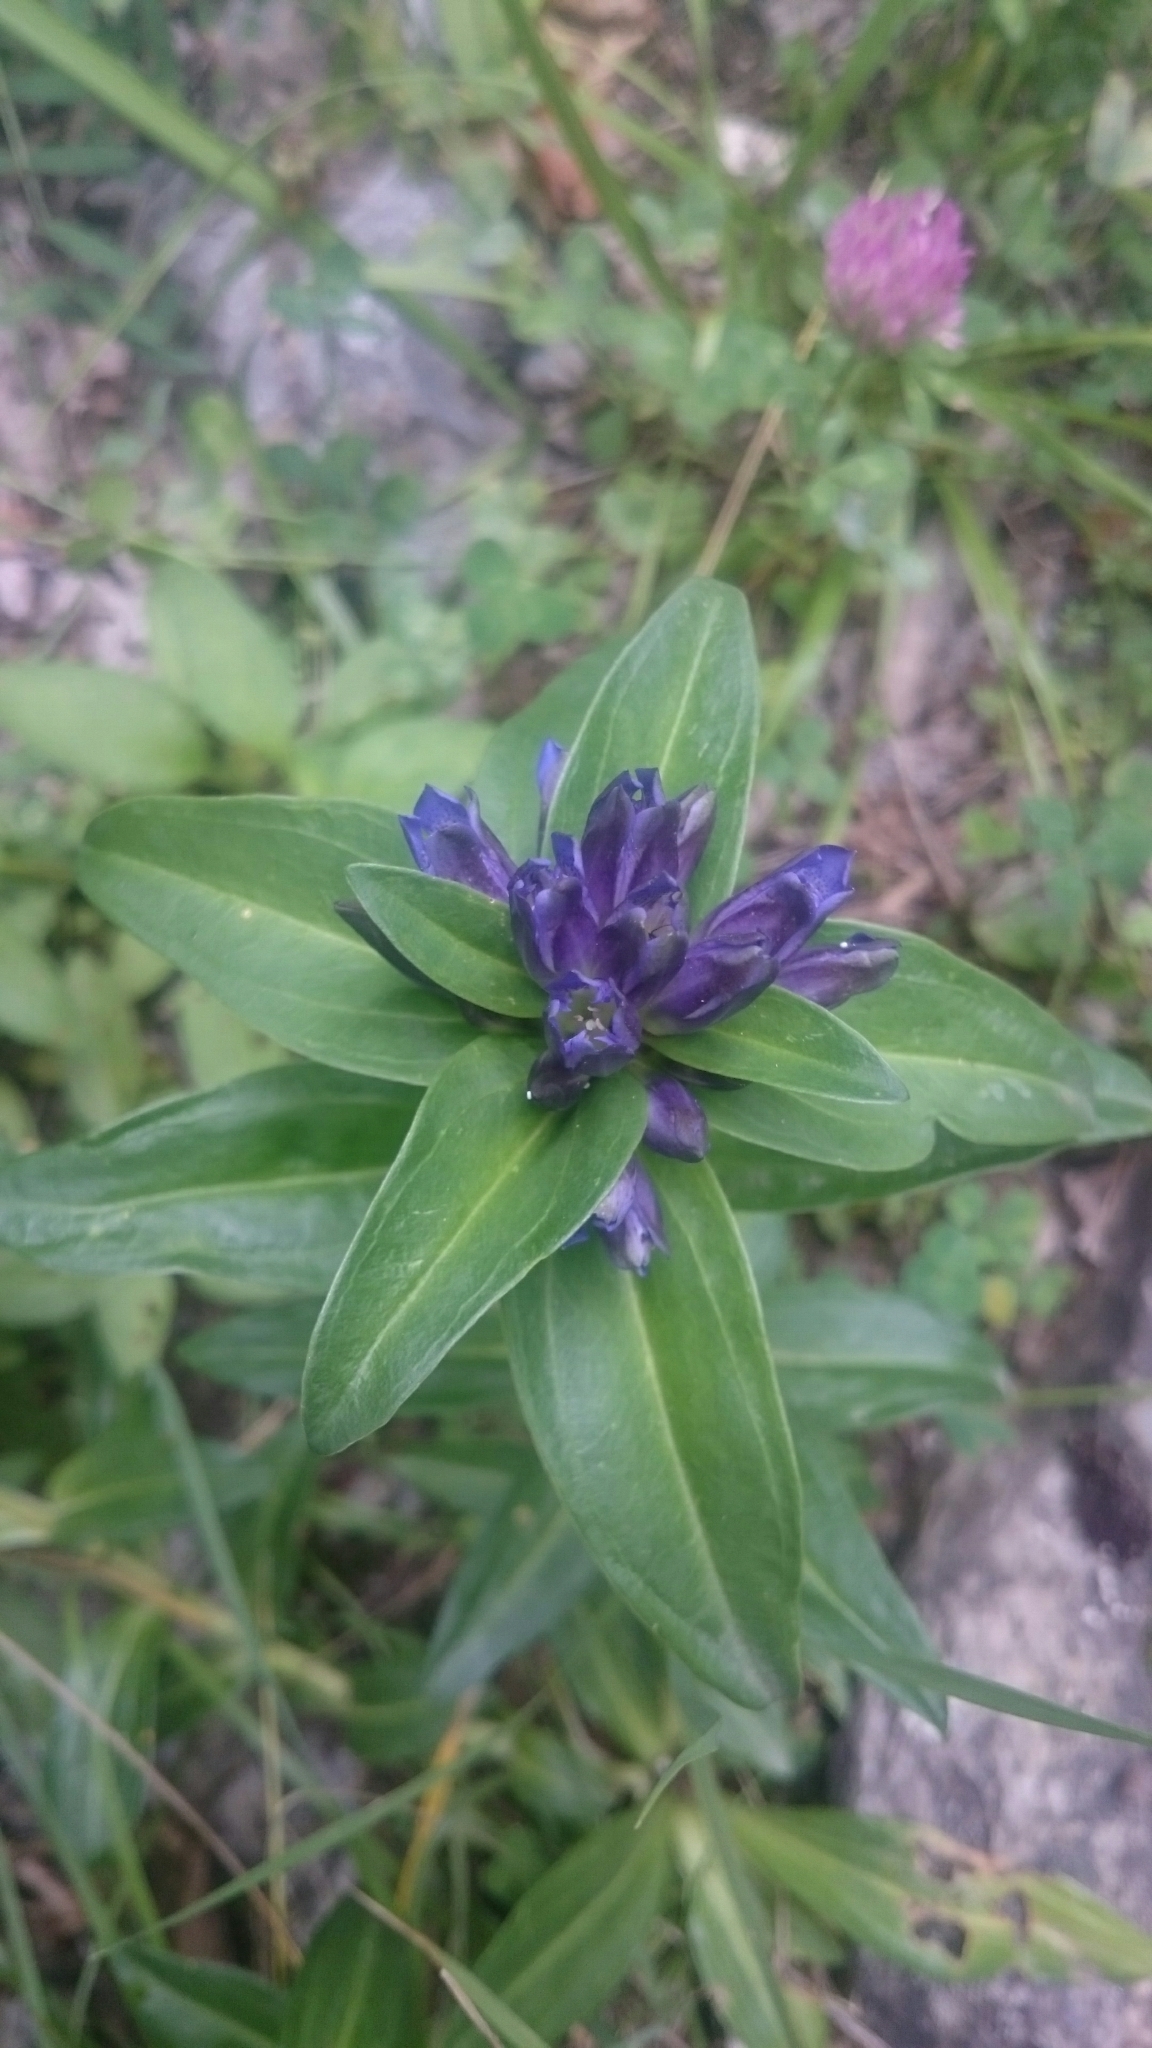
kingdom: Plantae
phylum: Tracheophyta
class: Magnoliopsida
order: Gentianales
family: Gentianaceae
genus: Gentiana
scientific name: Gentiana cruciata
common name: Cross gentian
